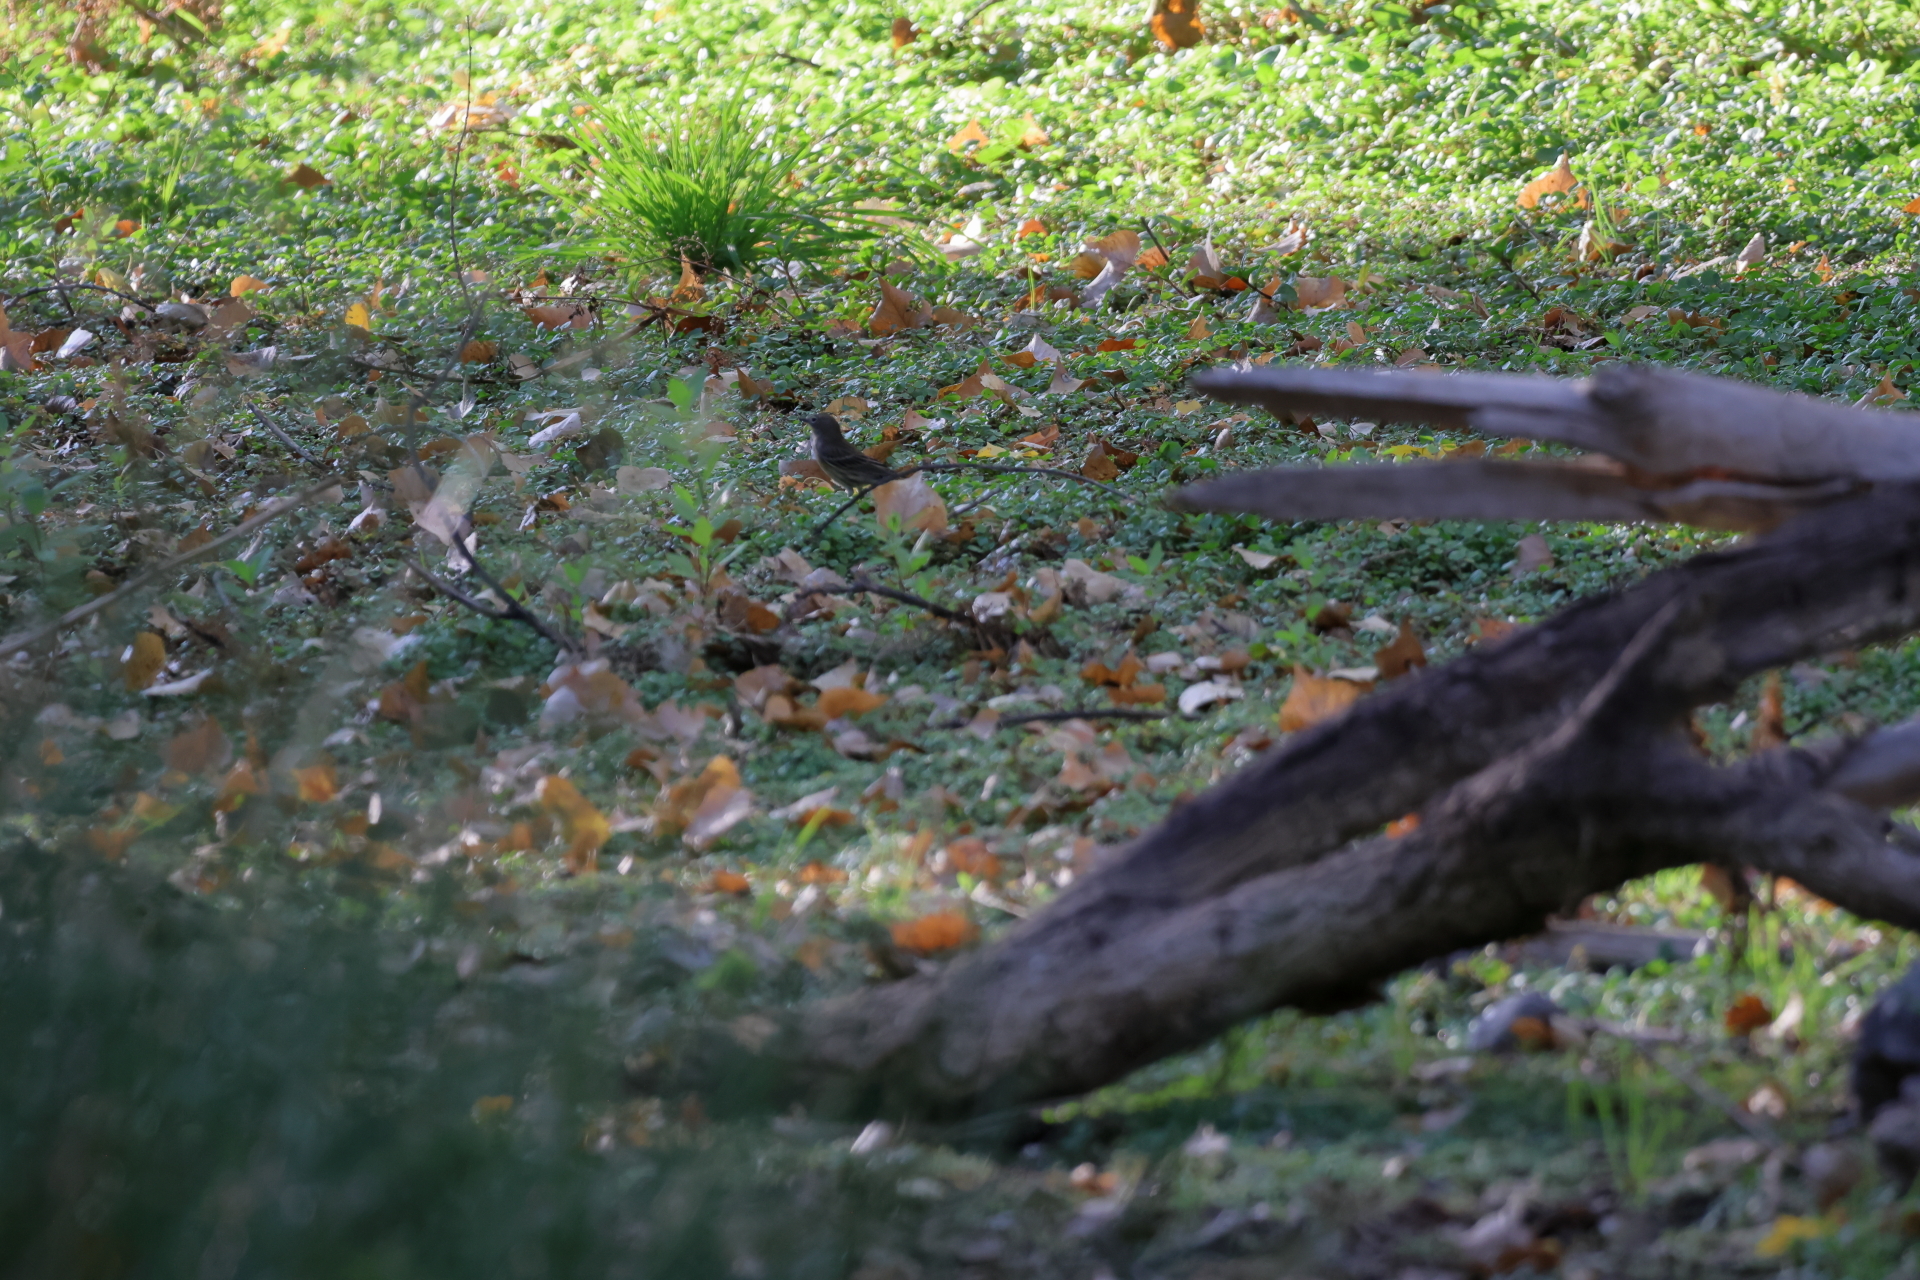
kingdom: Animalia
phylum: Chordata
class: Aves
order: Passeriformes
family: Parulidae
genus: Setophaga
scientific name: Setophaga coronata
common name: Myrtle warbler
